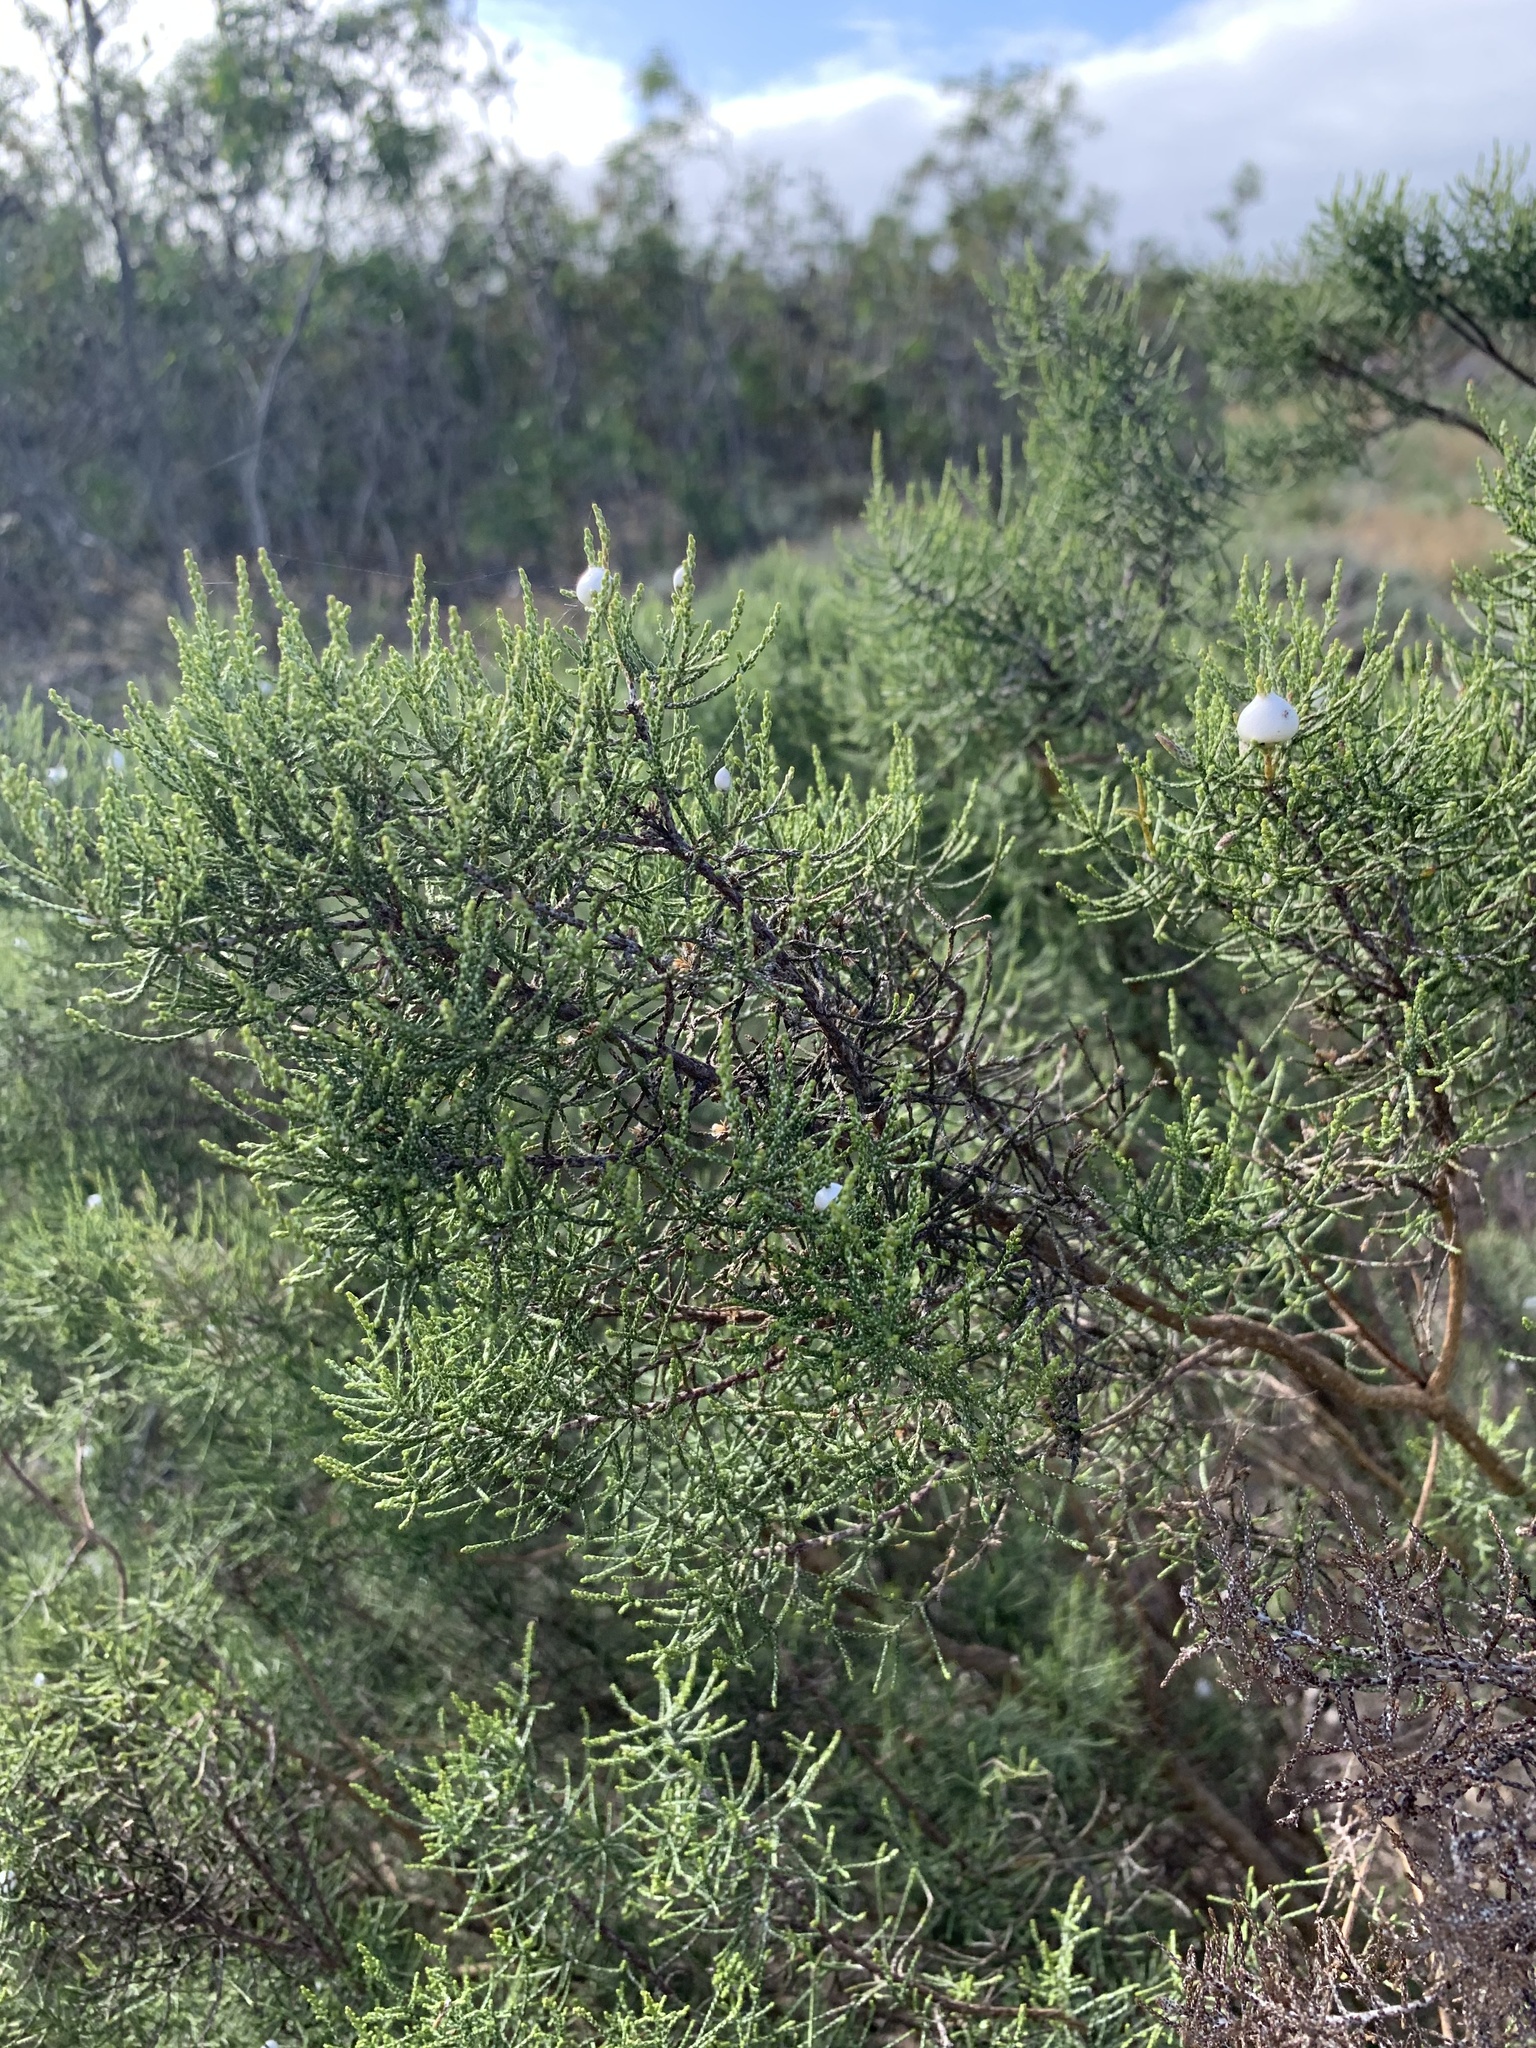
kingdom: Plantae
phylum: Tracheophyta
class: Magnoliopsida
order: Asterales
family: Asteraceae
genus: Dicerothamnus
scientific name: Dicerothamnus rhinocerotis
